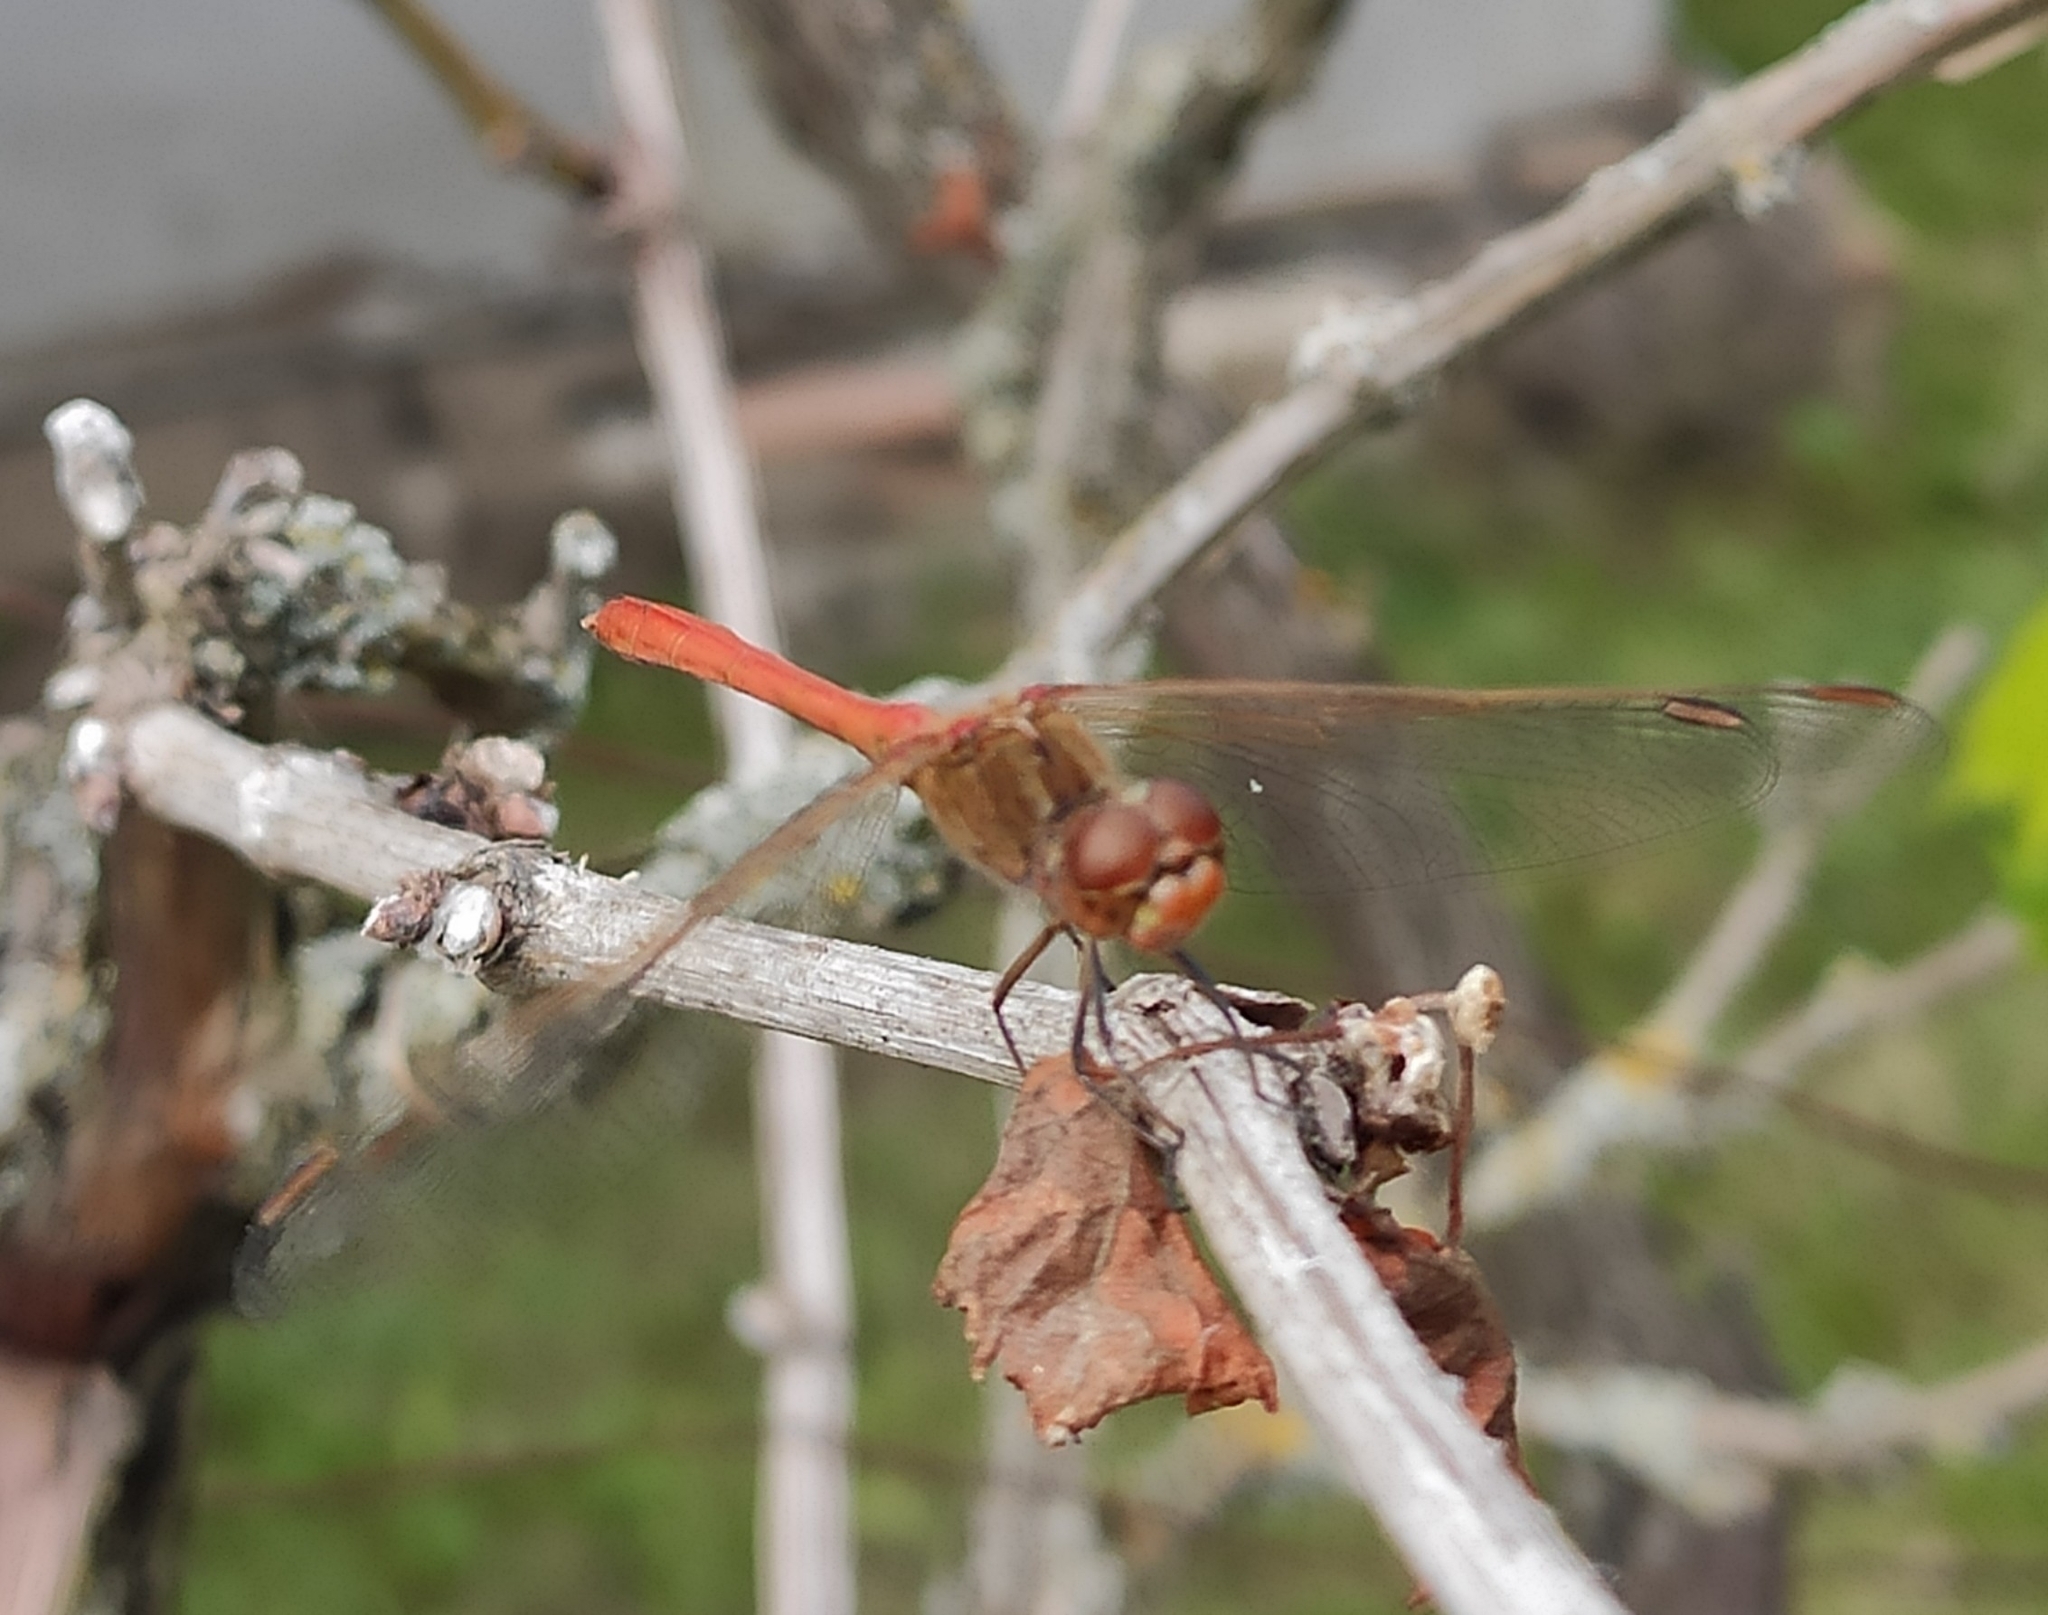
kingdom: Animalia
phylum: Arthropoda
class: Insecta
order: Odonata
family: Libellulidae
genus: Sympetrum
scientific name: Sympetrum meridionale
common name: Southern darter
